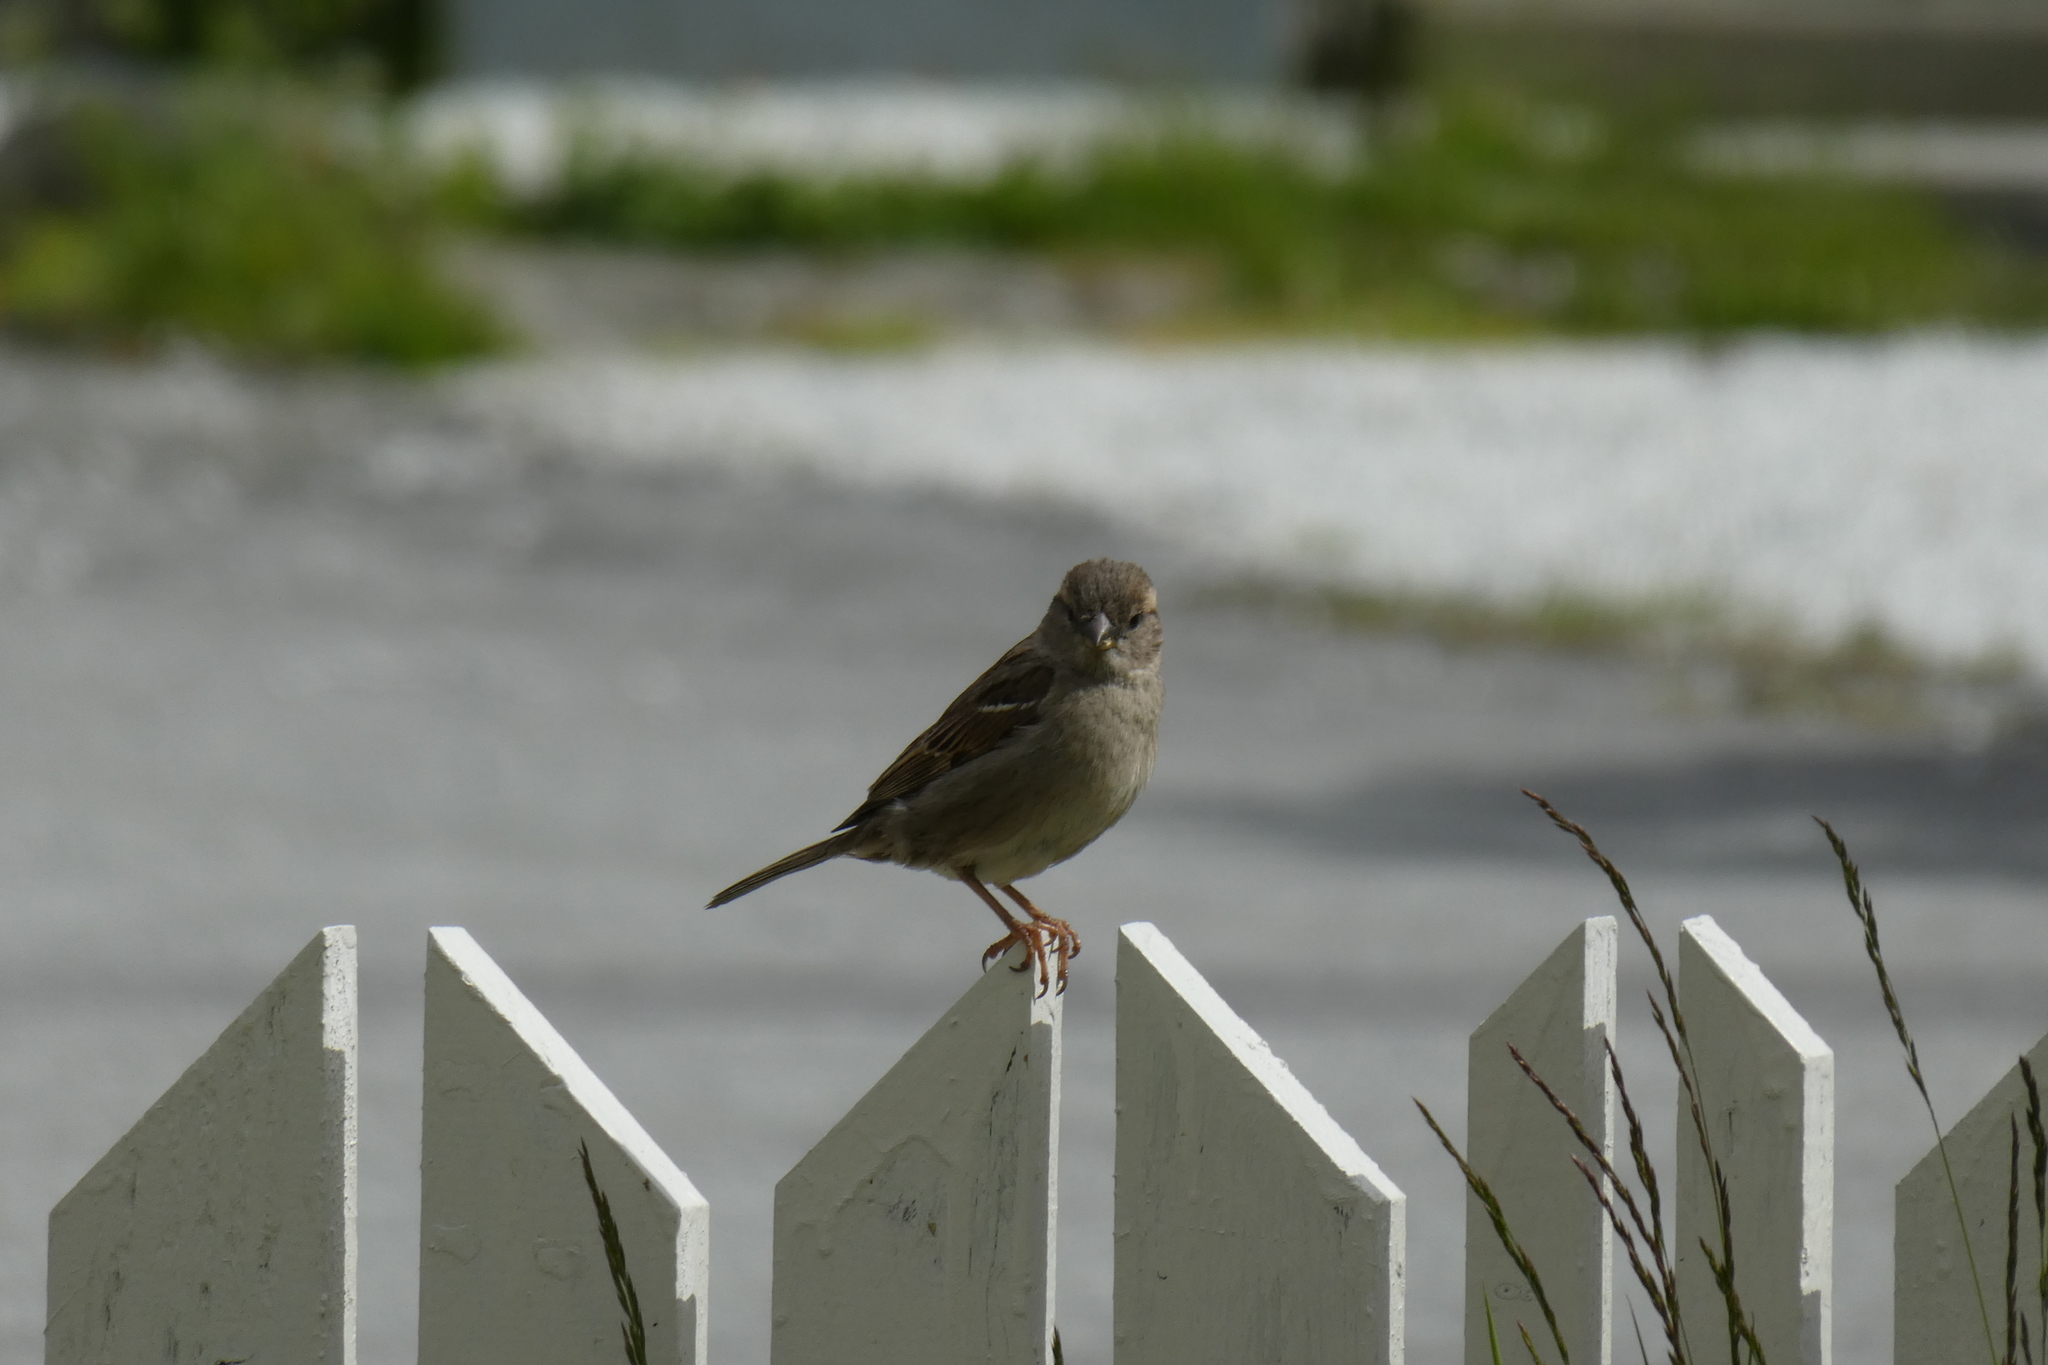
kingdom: Animalia
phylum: Chordata
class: Aves
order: Passeriformes
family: Passeridae
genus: Passer
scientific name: Passer domesticus
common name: House sparrow
